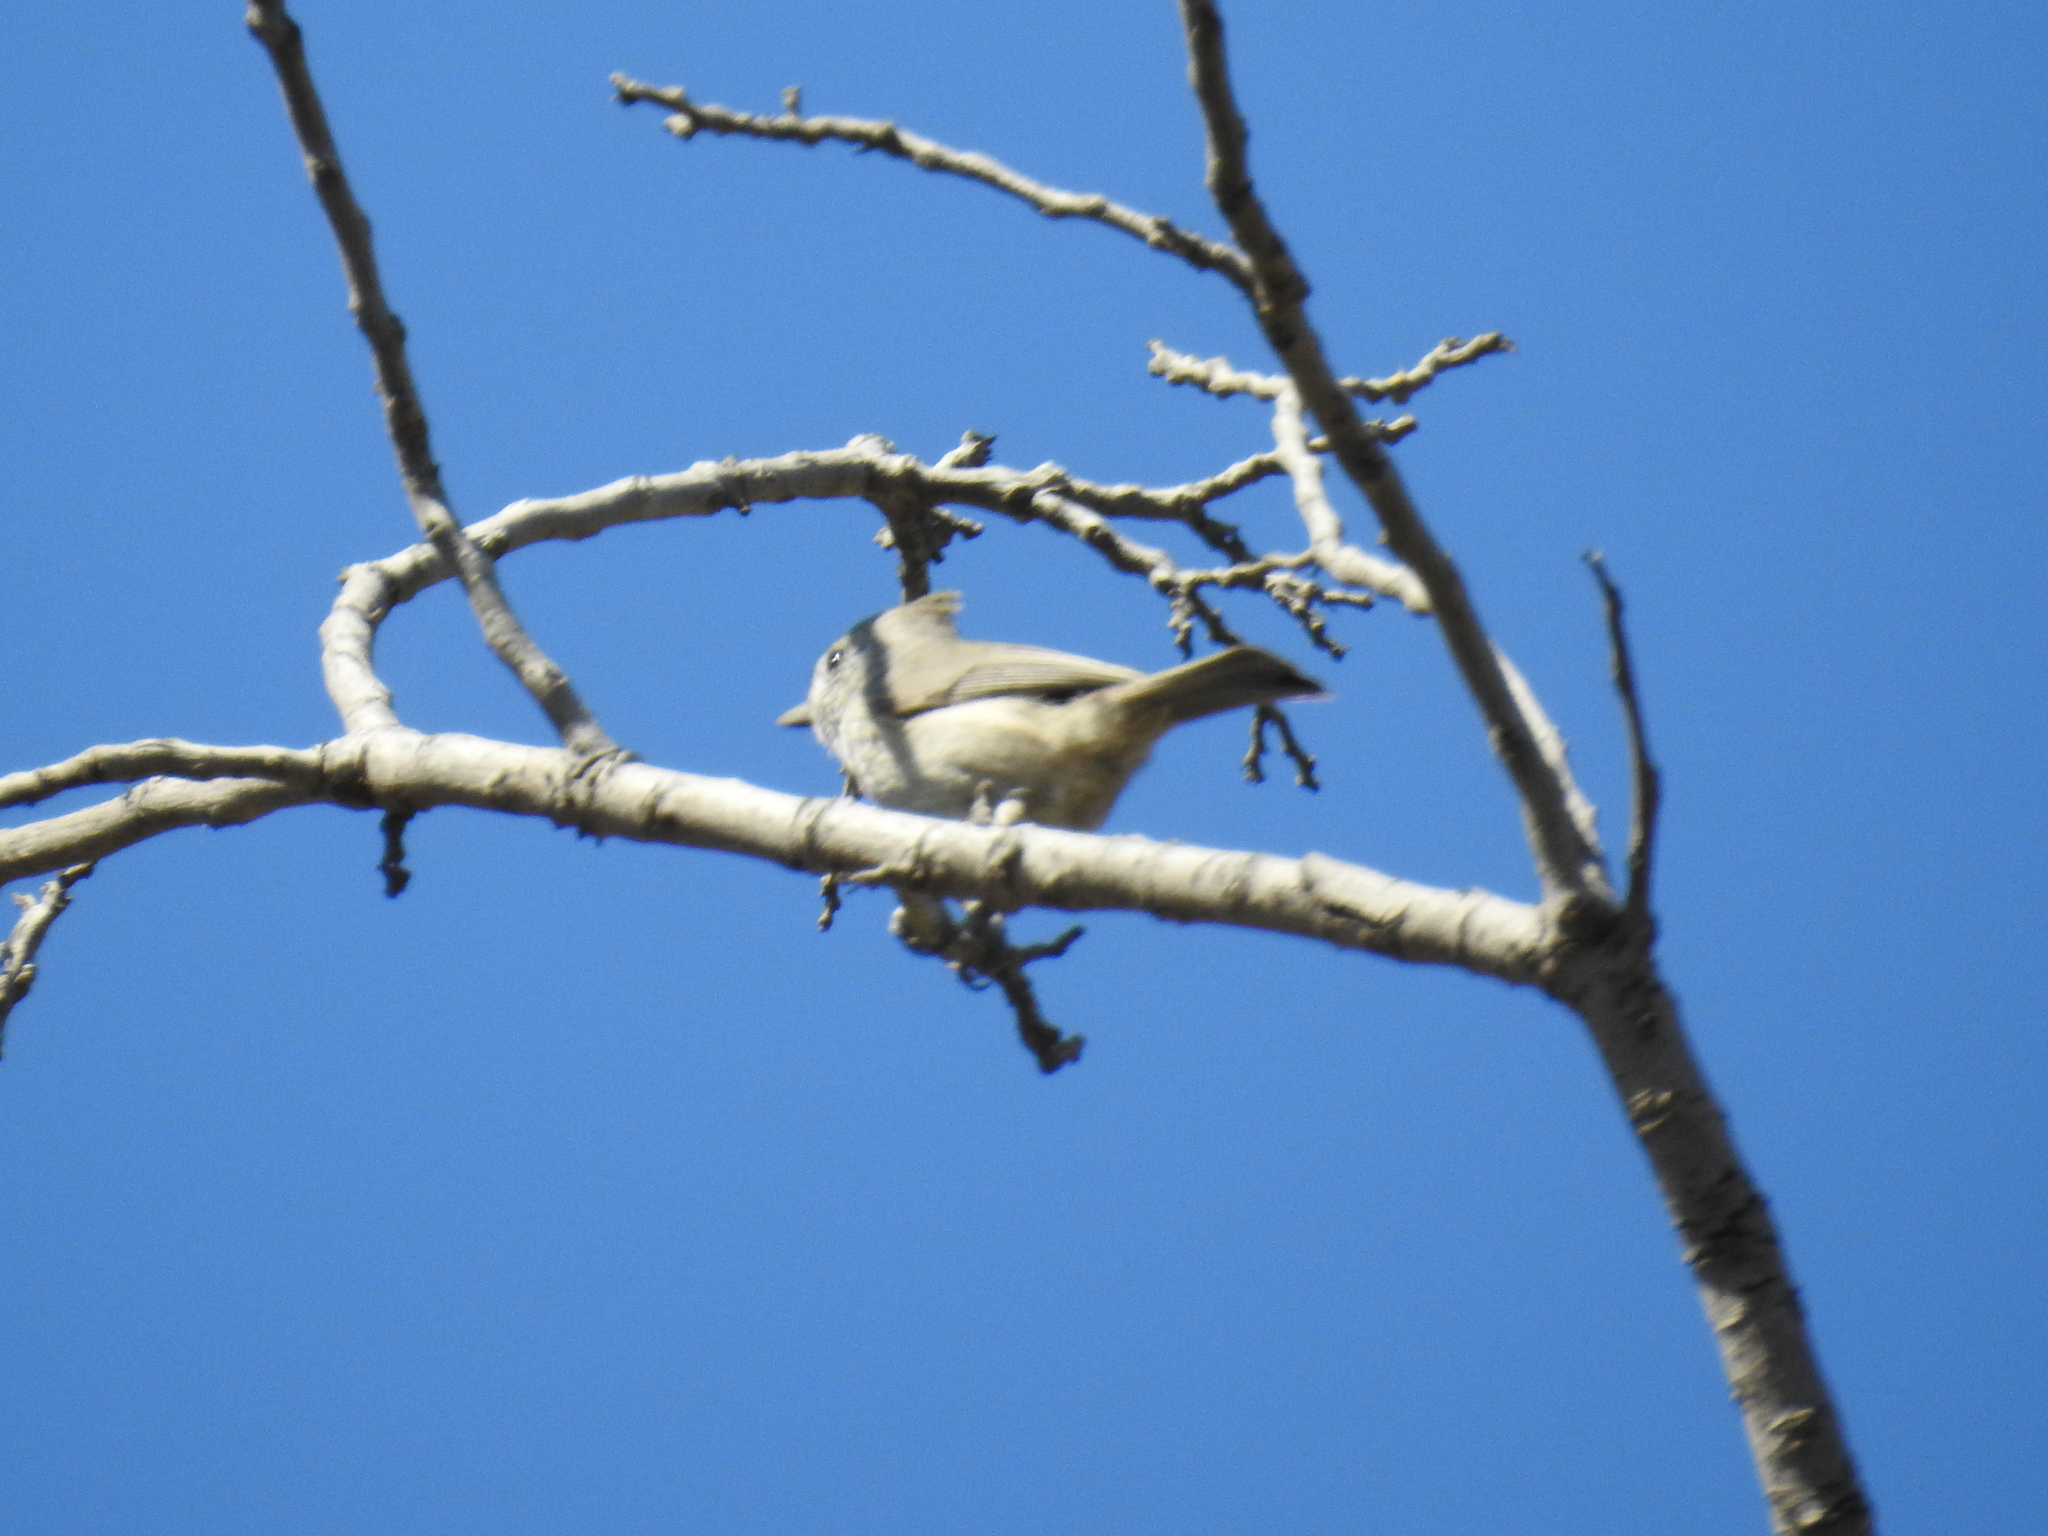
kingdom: Animalia
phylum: Chordata
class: Aves
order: Passeriformes
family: Paridae
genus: Baeolophus
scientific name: Baeolophus inornatus
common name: Oak titmouse
